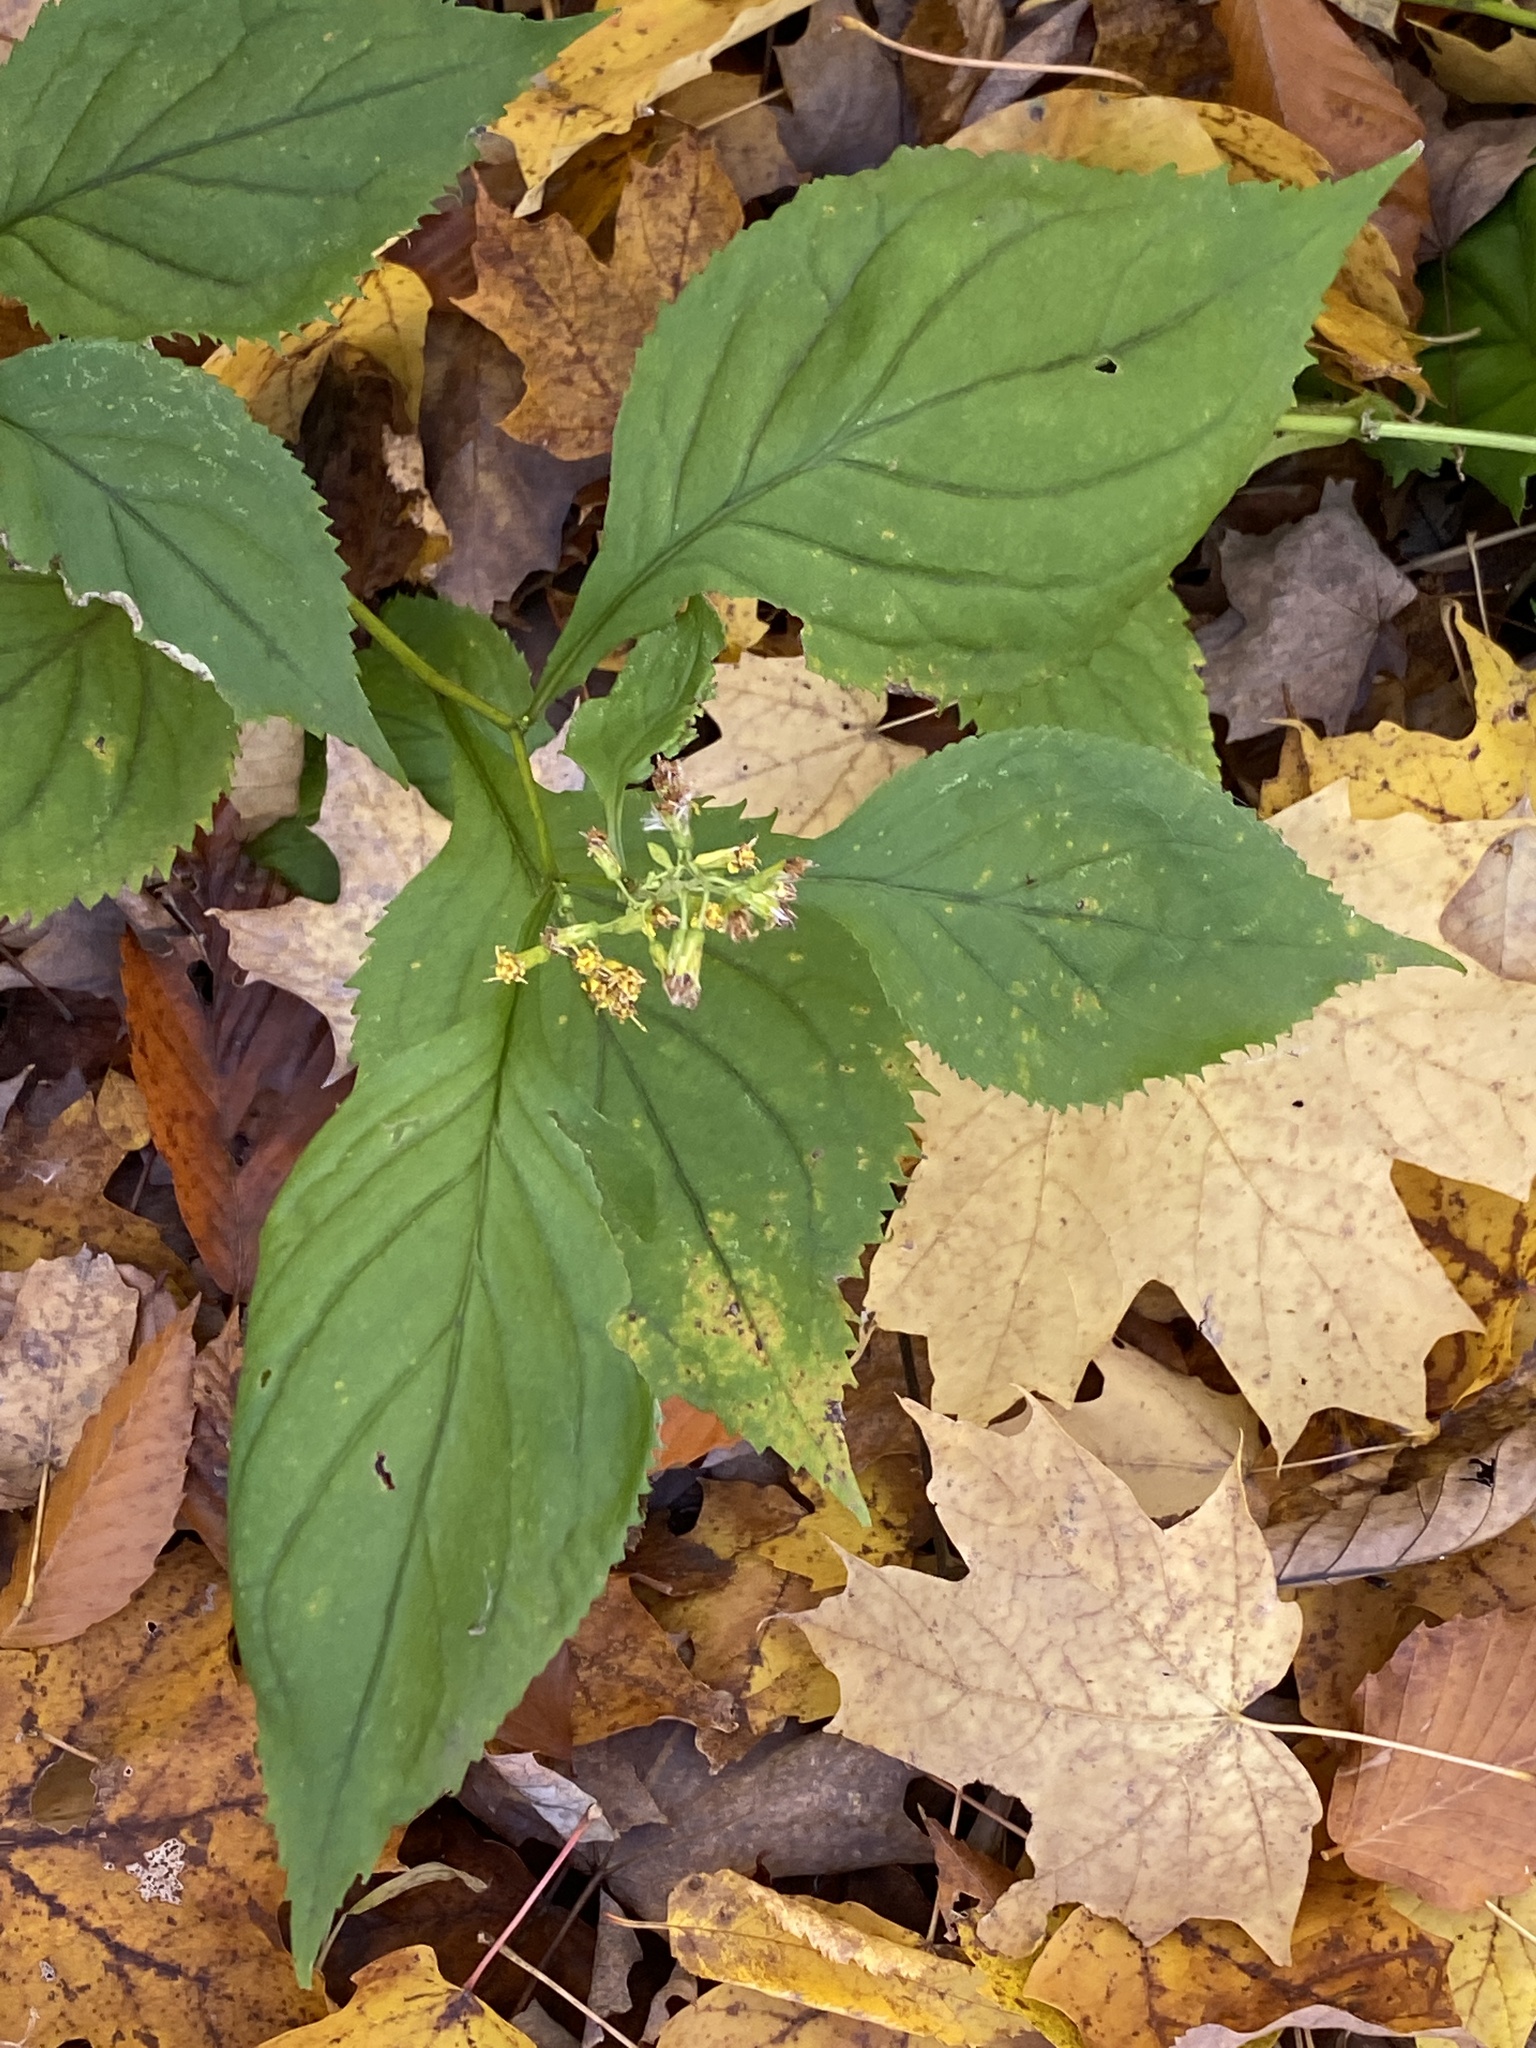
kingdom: Plantae
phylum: Tracheophyta
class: Magnoliopsida
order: Asterales
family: Asteraceae
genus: Solidago
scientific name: Solidago flexicaulis
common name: Zig-zag goldenrod
